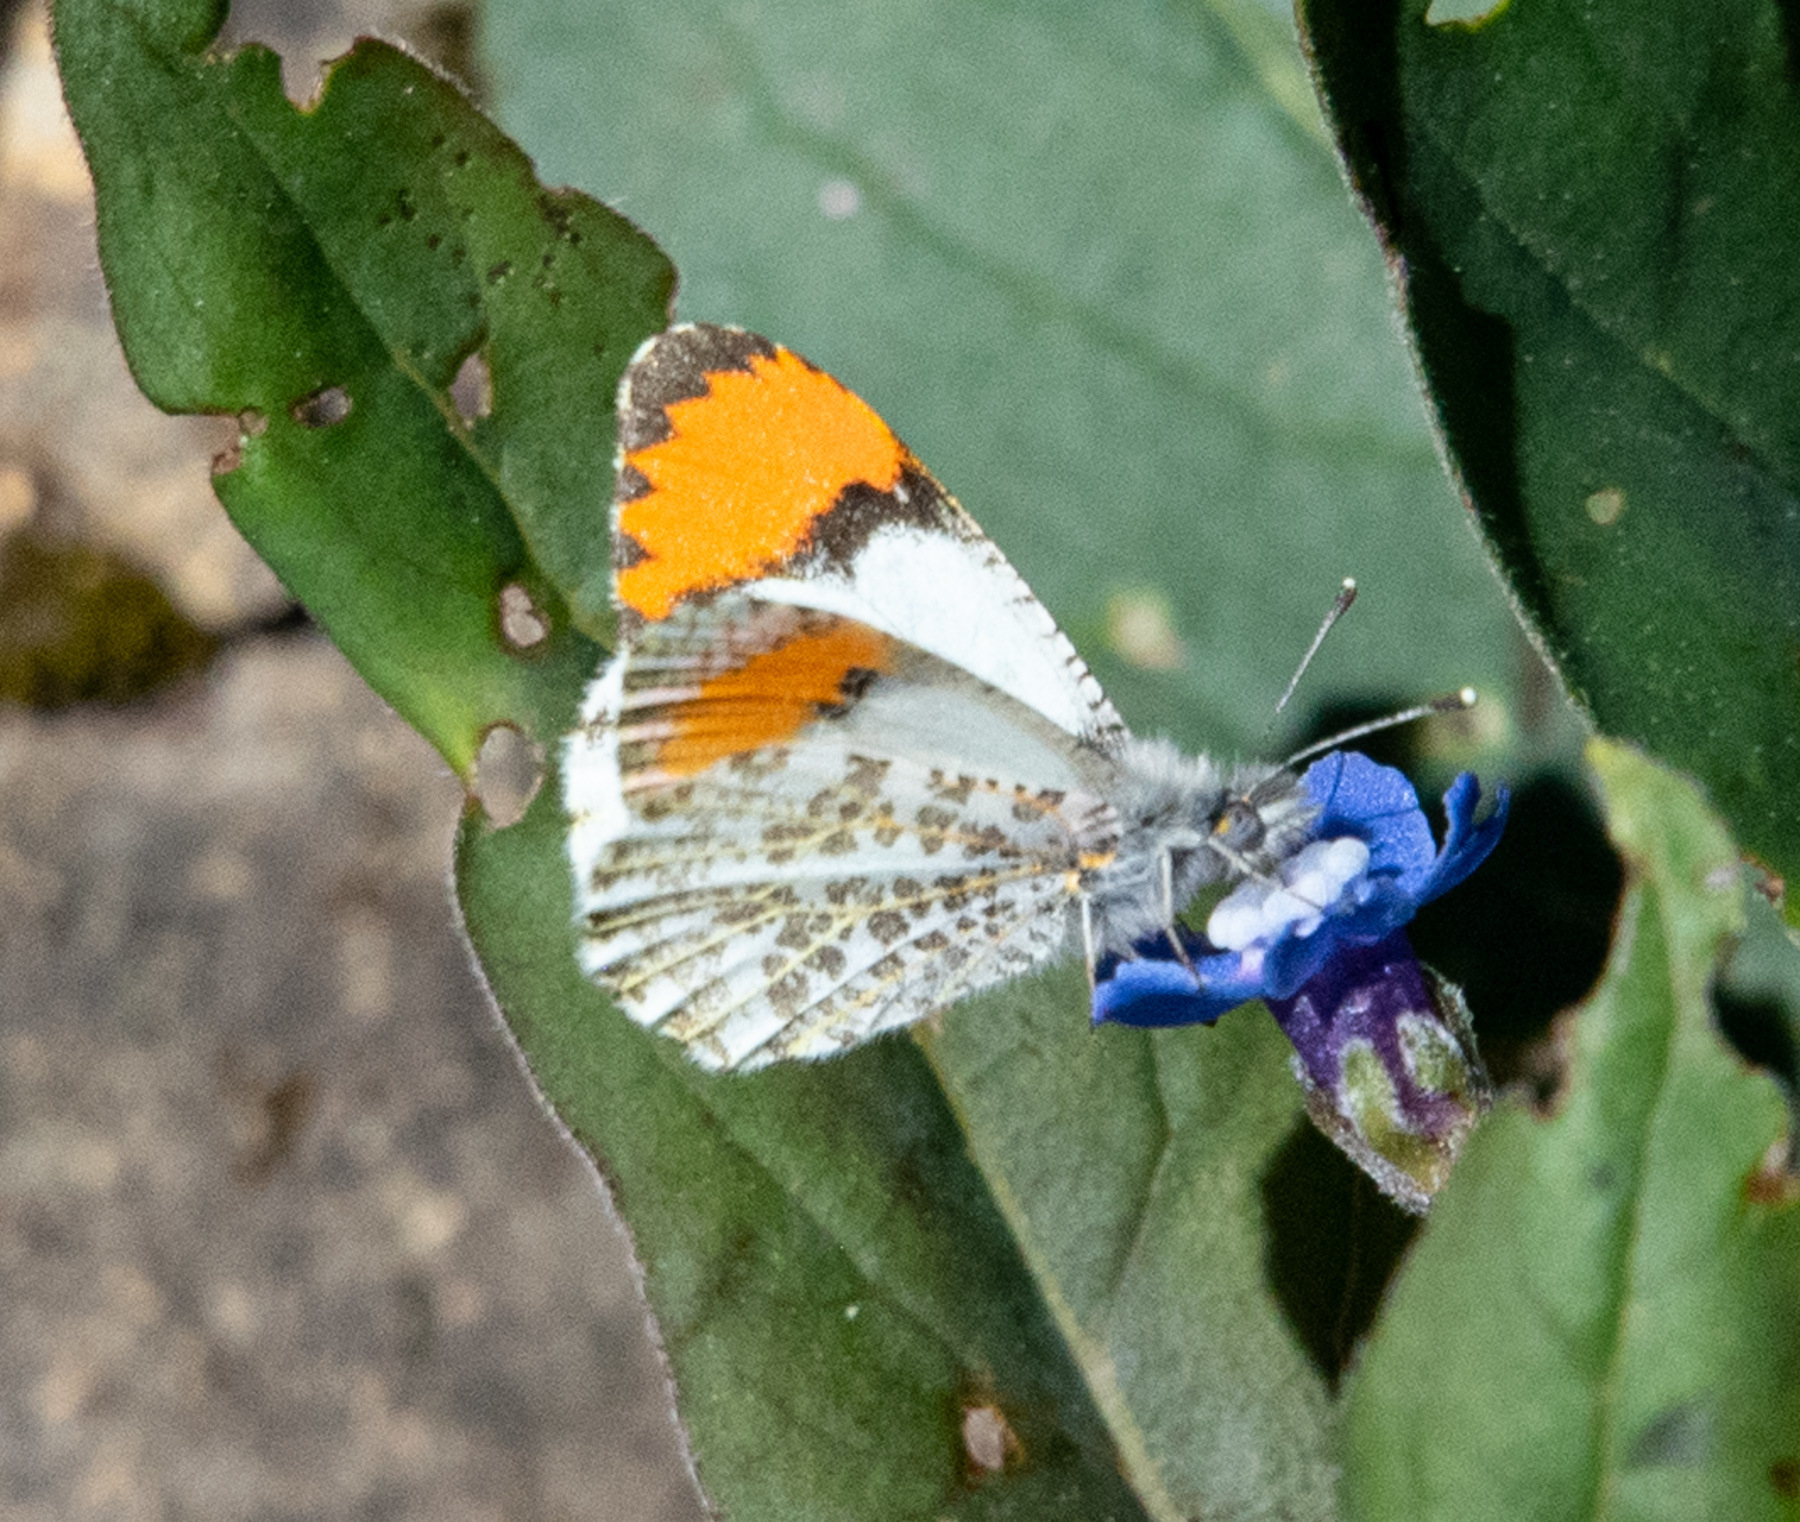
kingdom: Animalia
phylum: Arthropoda
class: Insecta
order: Lepidoptera
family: Pieridae
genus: Anthocharis
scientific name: Anthocharis sara
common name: Sara's orangetip
